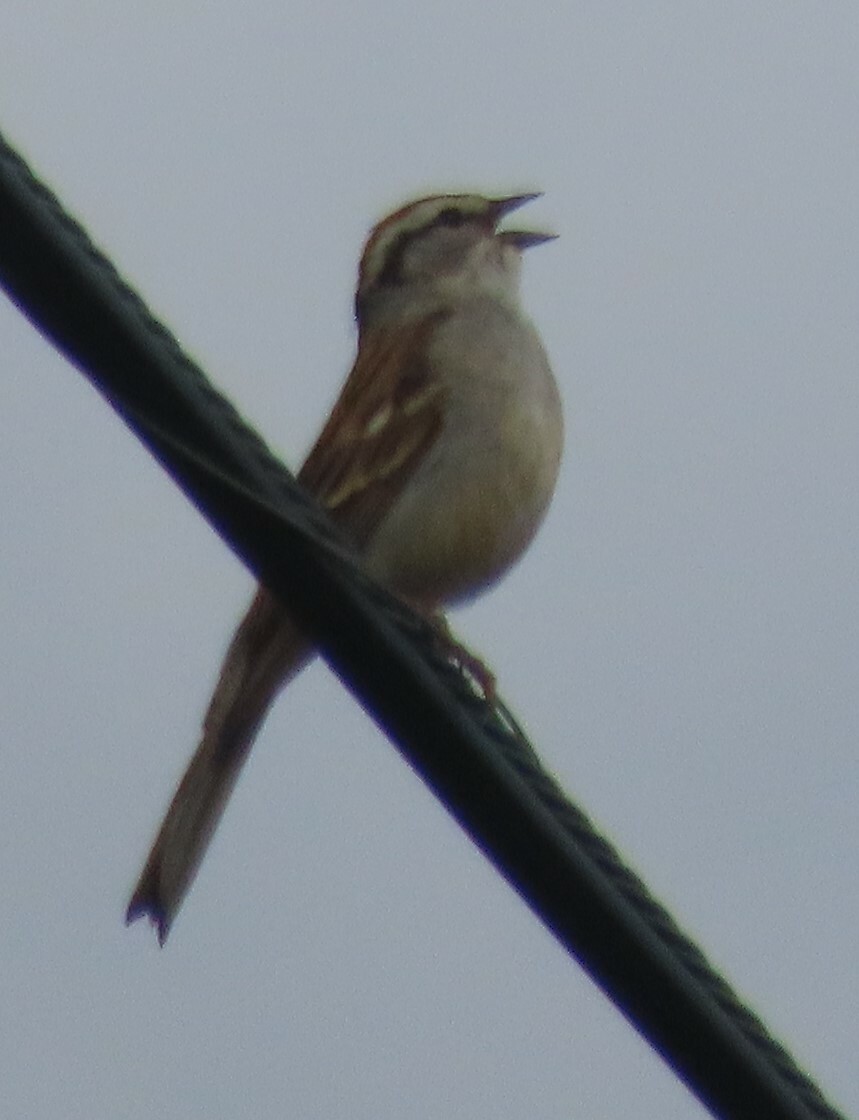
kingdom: Animalia
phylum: Chordata
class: Aves
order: Passeriformes
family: Passerellidae
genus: Spizella
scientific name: Spizella passerina
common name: Chipping sparrow
